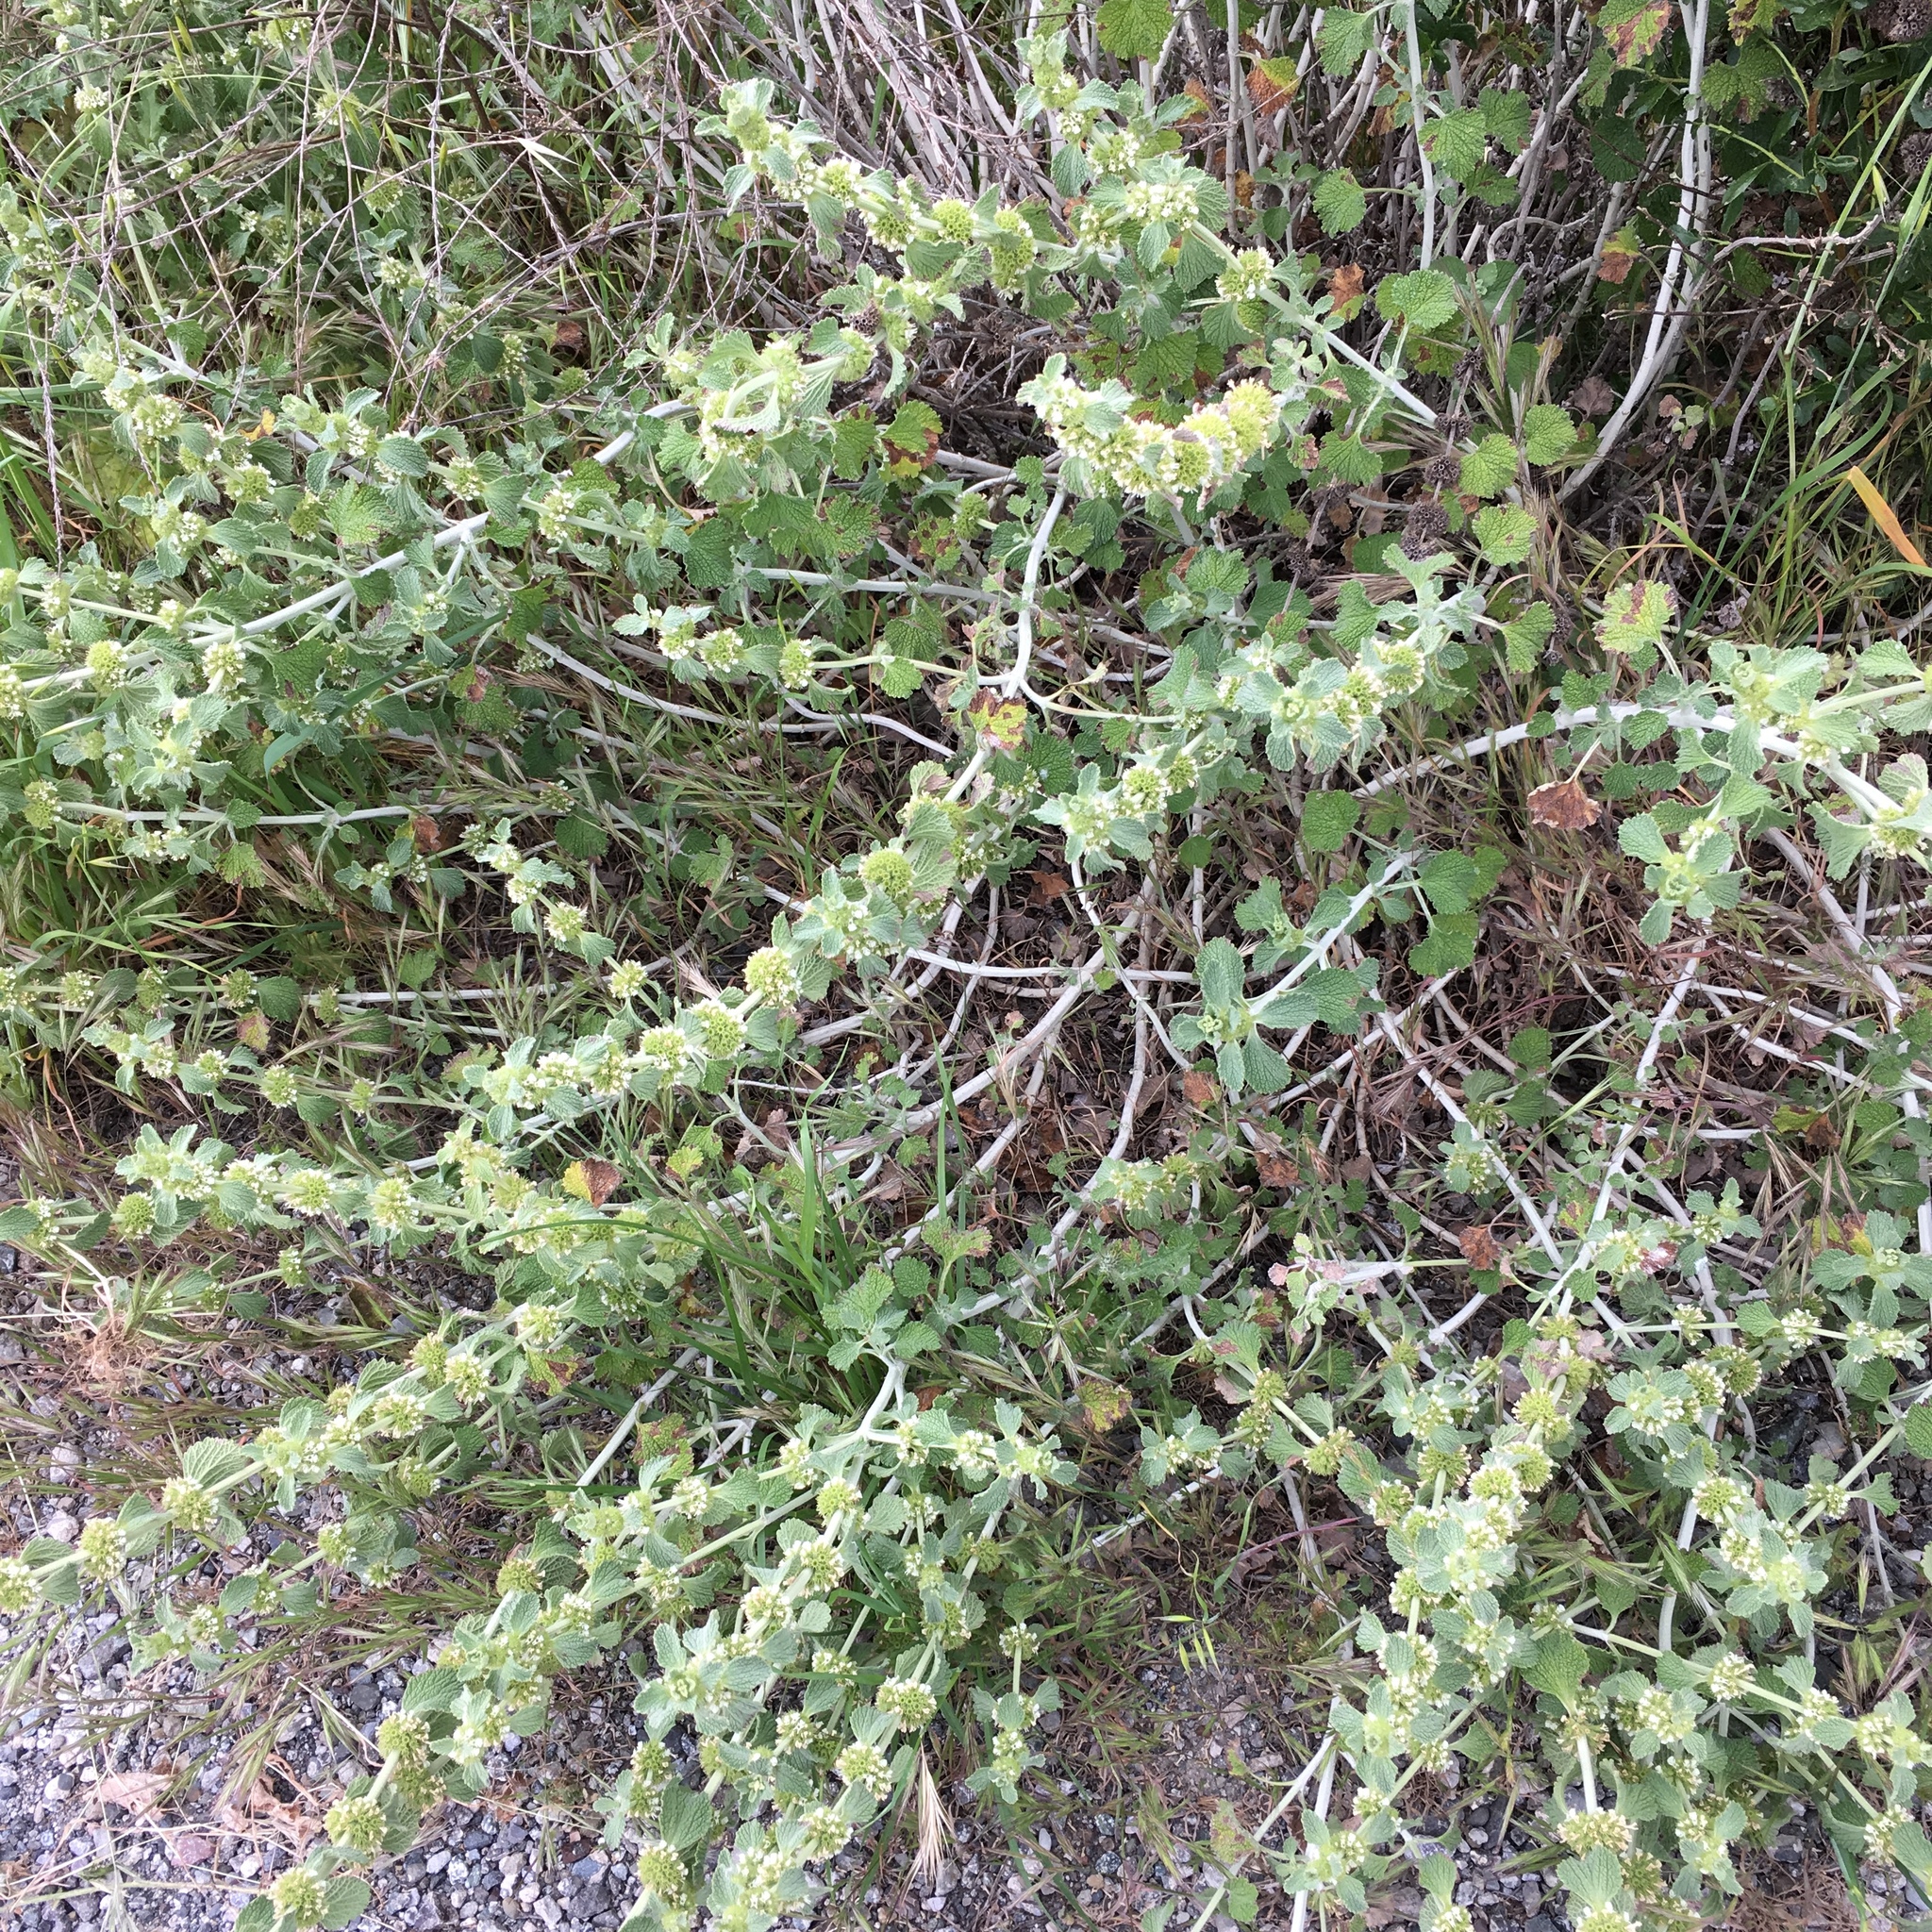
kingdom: Plantae
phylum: Tracheophyta
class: Magnoliopsida
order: Lamiales
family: Lamiaceae
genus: Marrubium
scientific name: Marrubium vulgare
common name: Horehound
